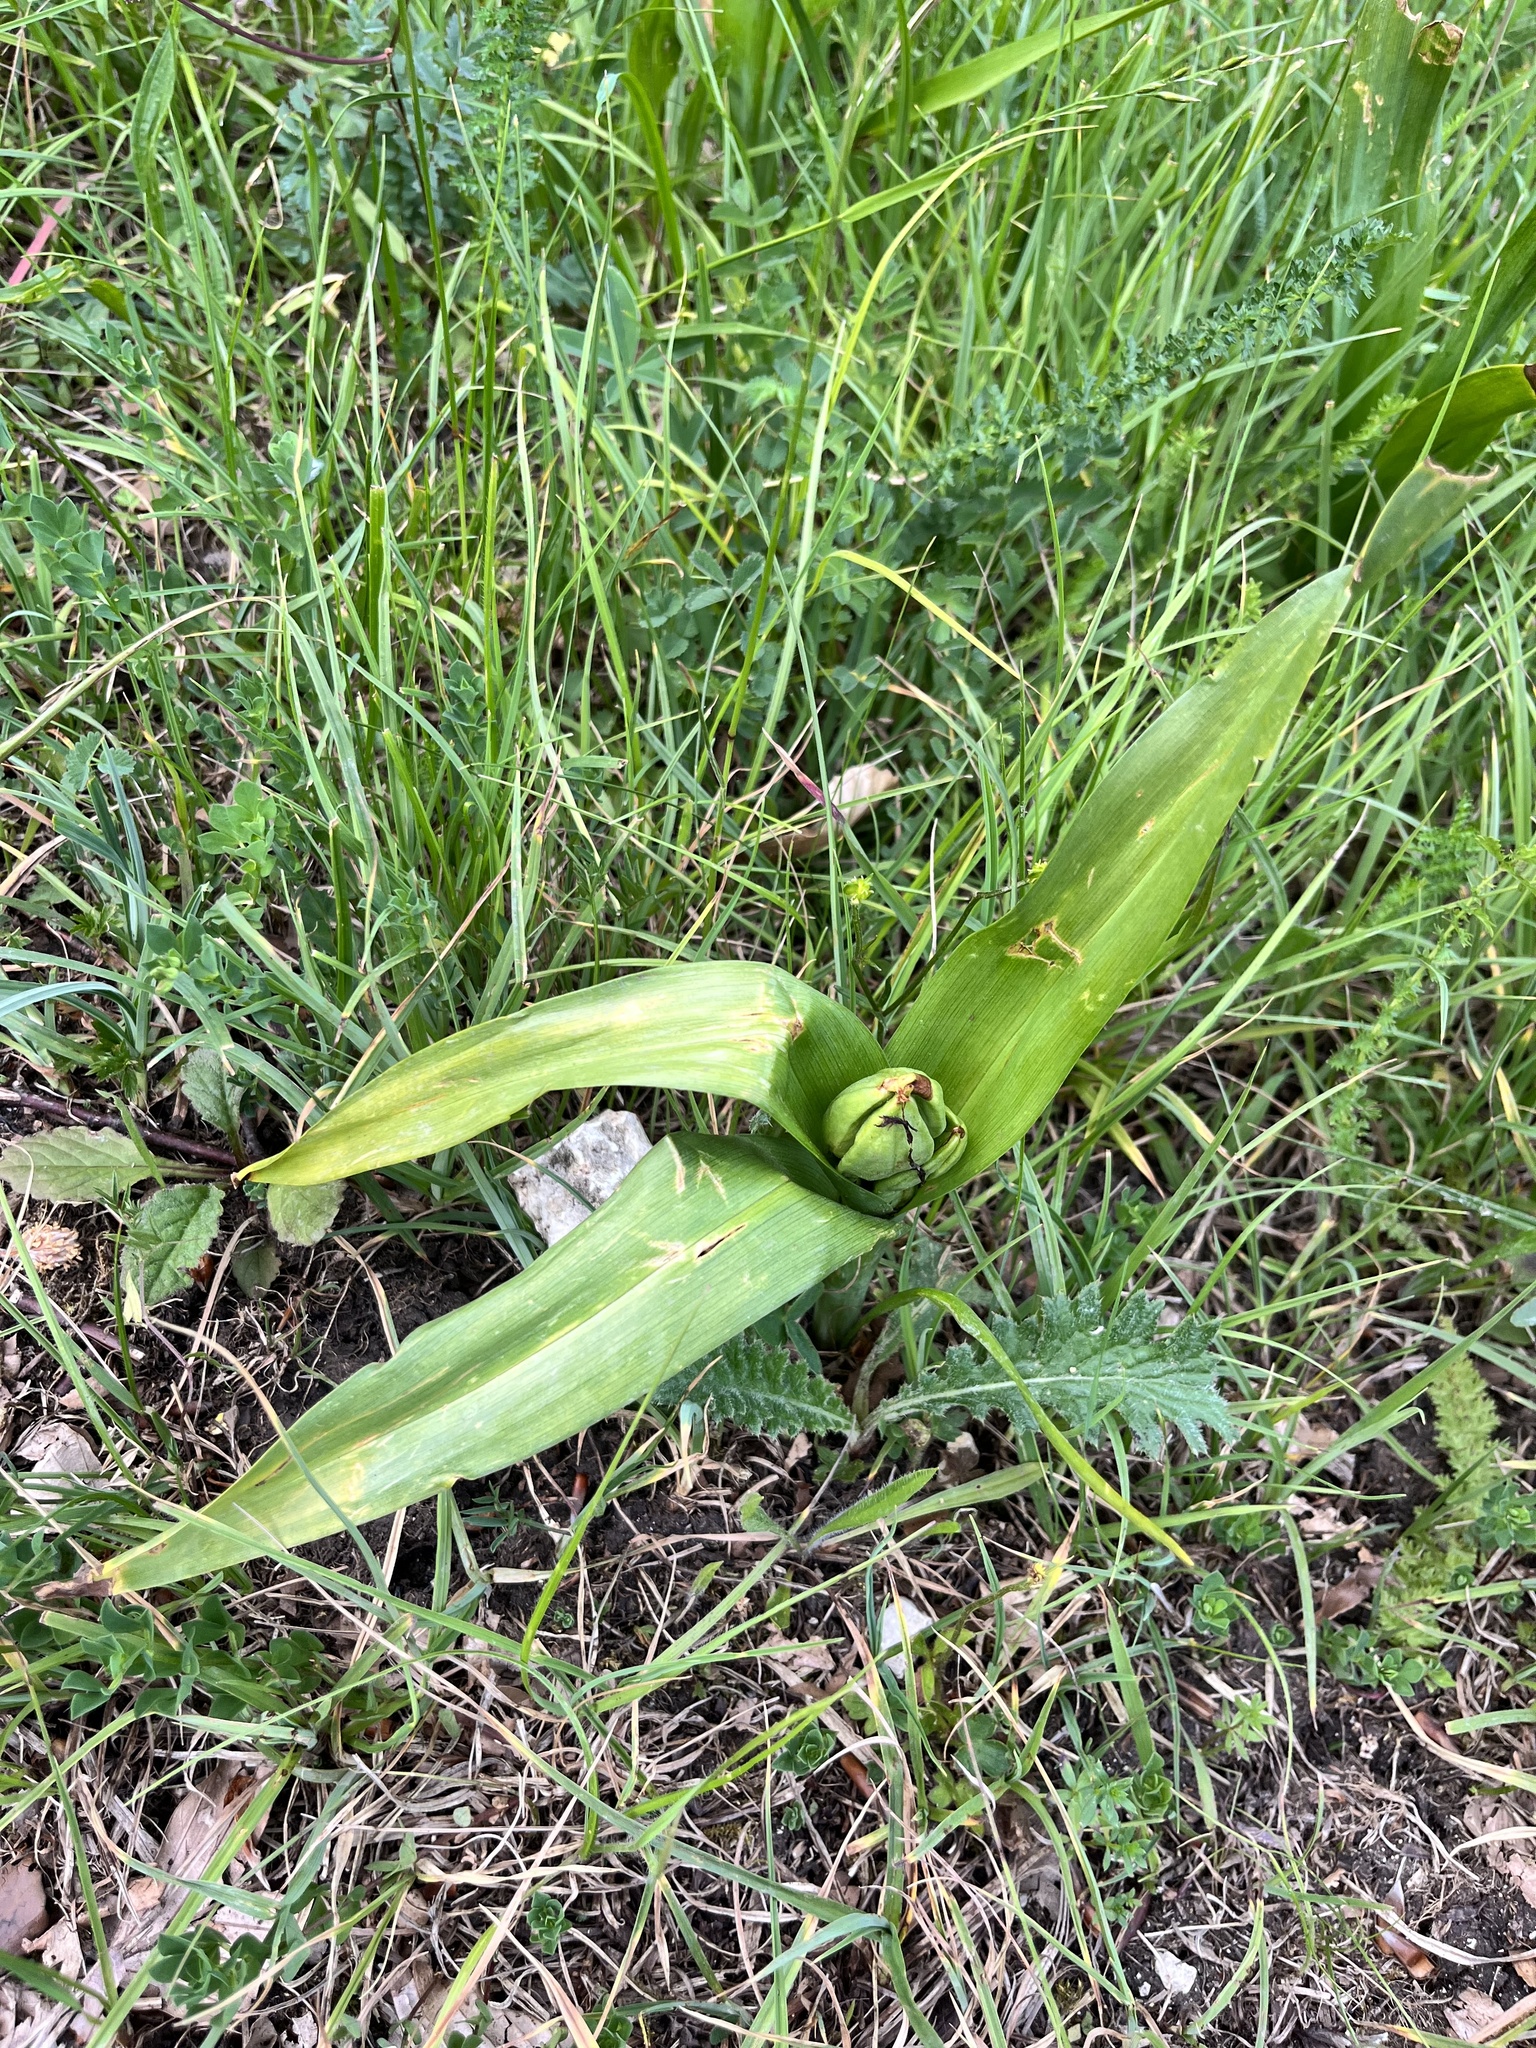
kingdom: Plantae
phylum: Tracheophyta
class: Liliopsida
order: Liliales
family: Colchicaceae
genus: Colchicum
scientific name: Colchicum autumnale
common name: Autumn crocus
